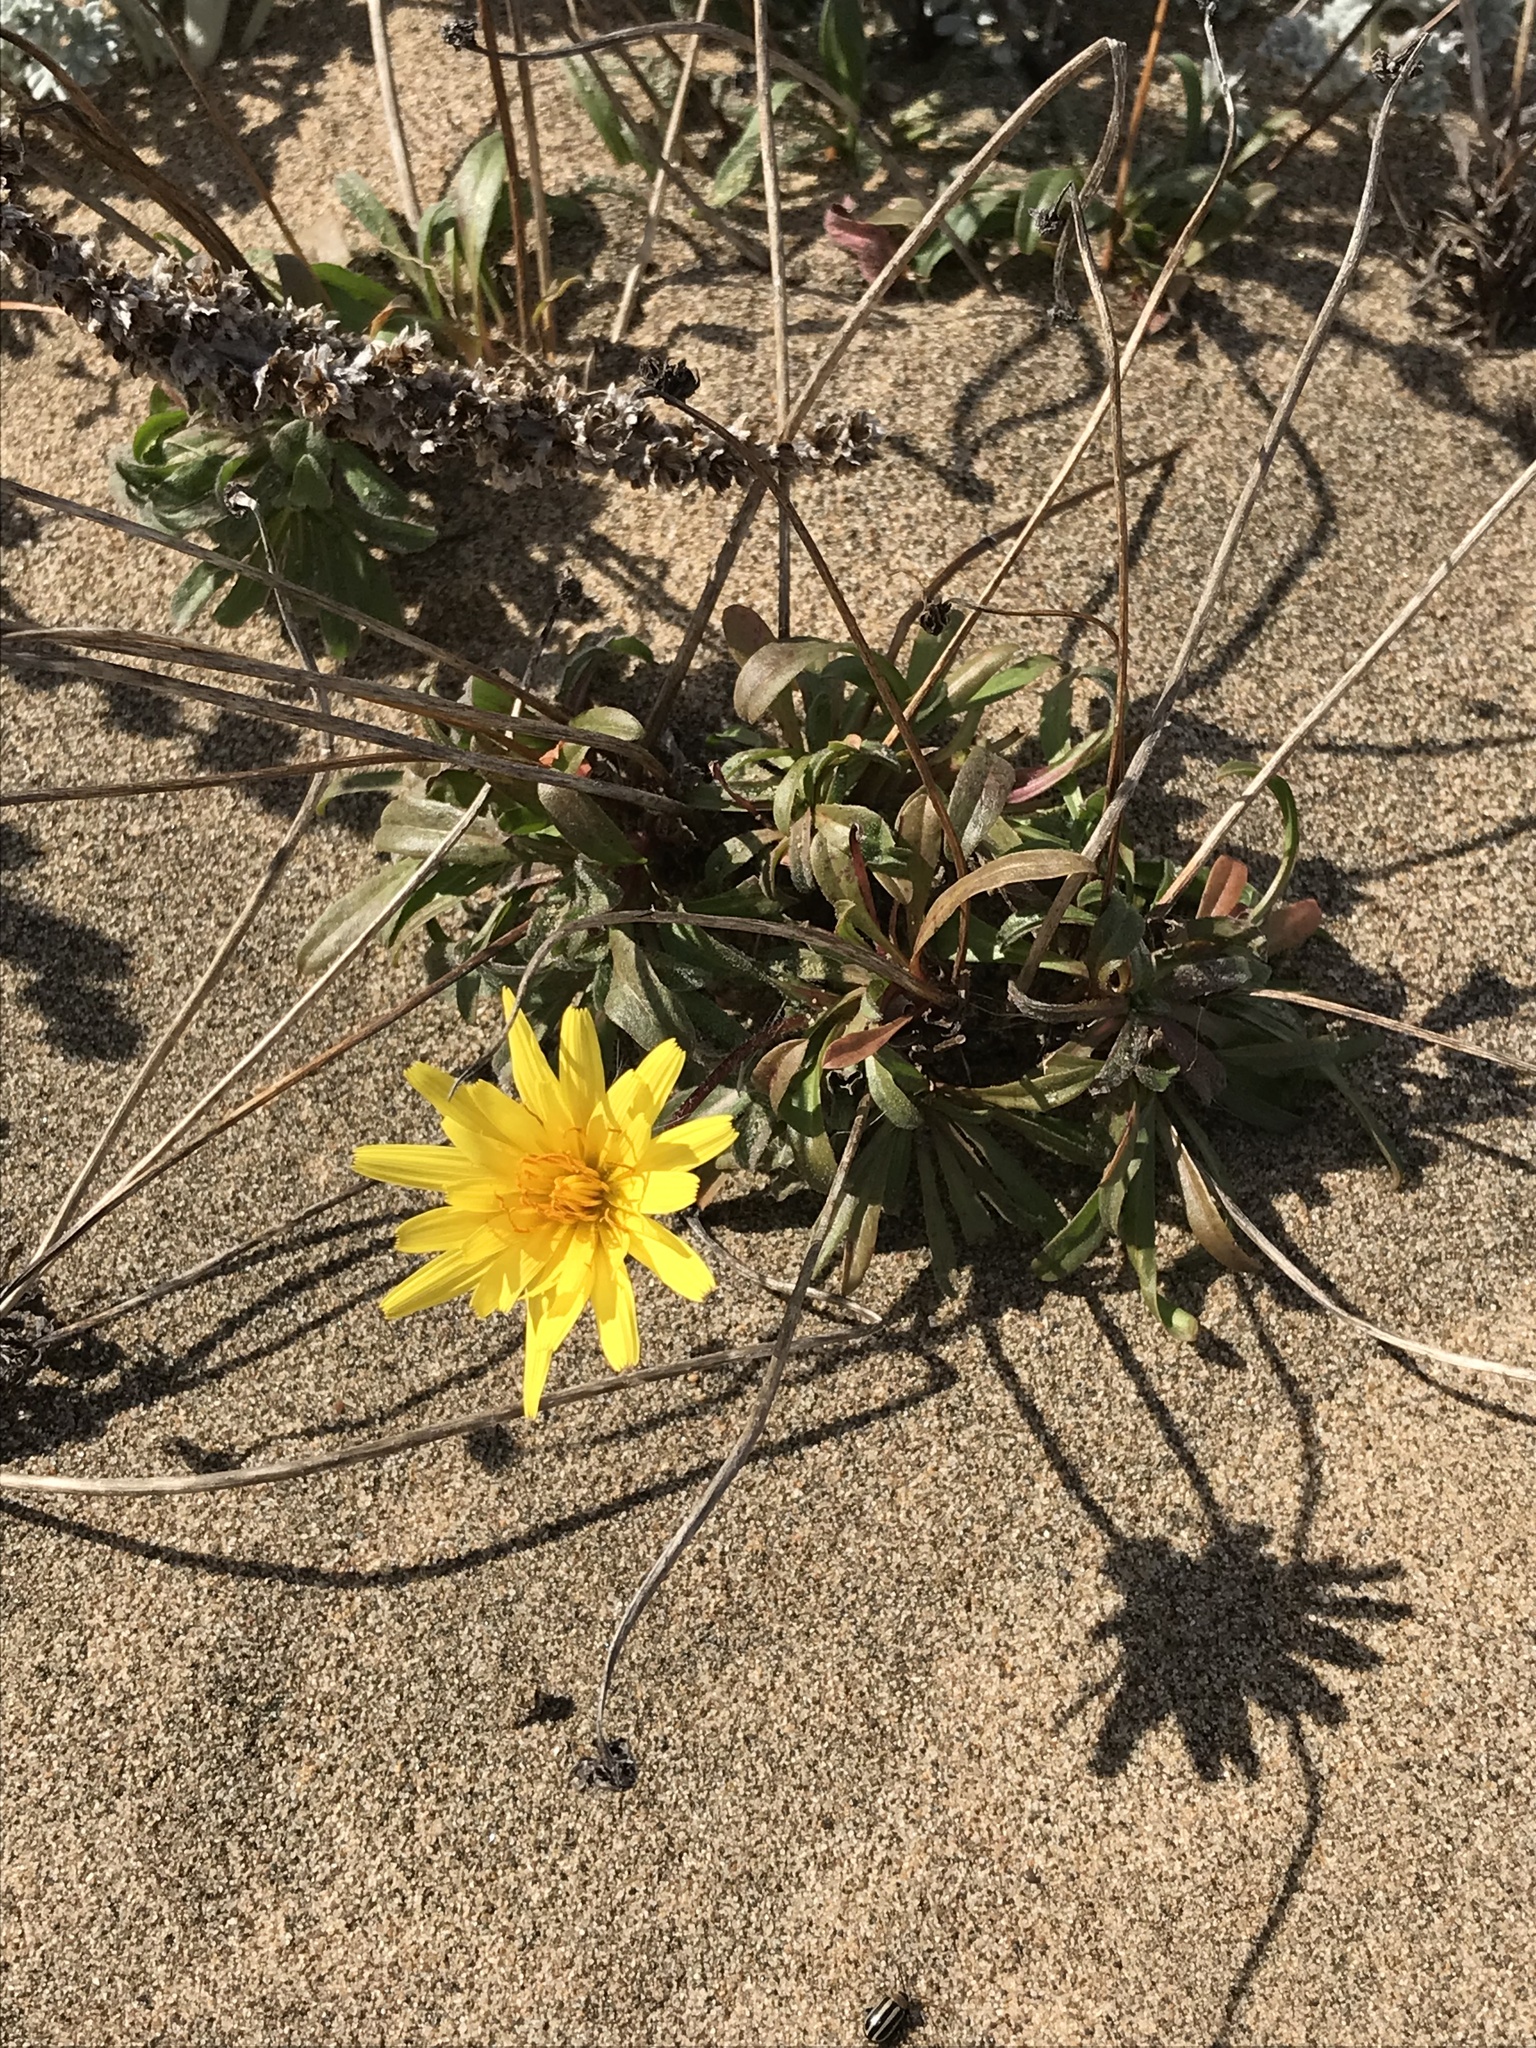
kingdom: Plantae
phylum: Tracheophyta
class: Magnoliopsida
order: Asterales
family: Asteraceae
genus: Agoseris
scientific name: Agoseris apargioides
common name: Point reyes agoseris
